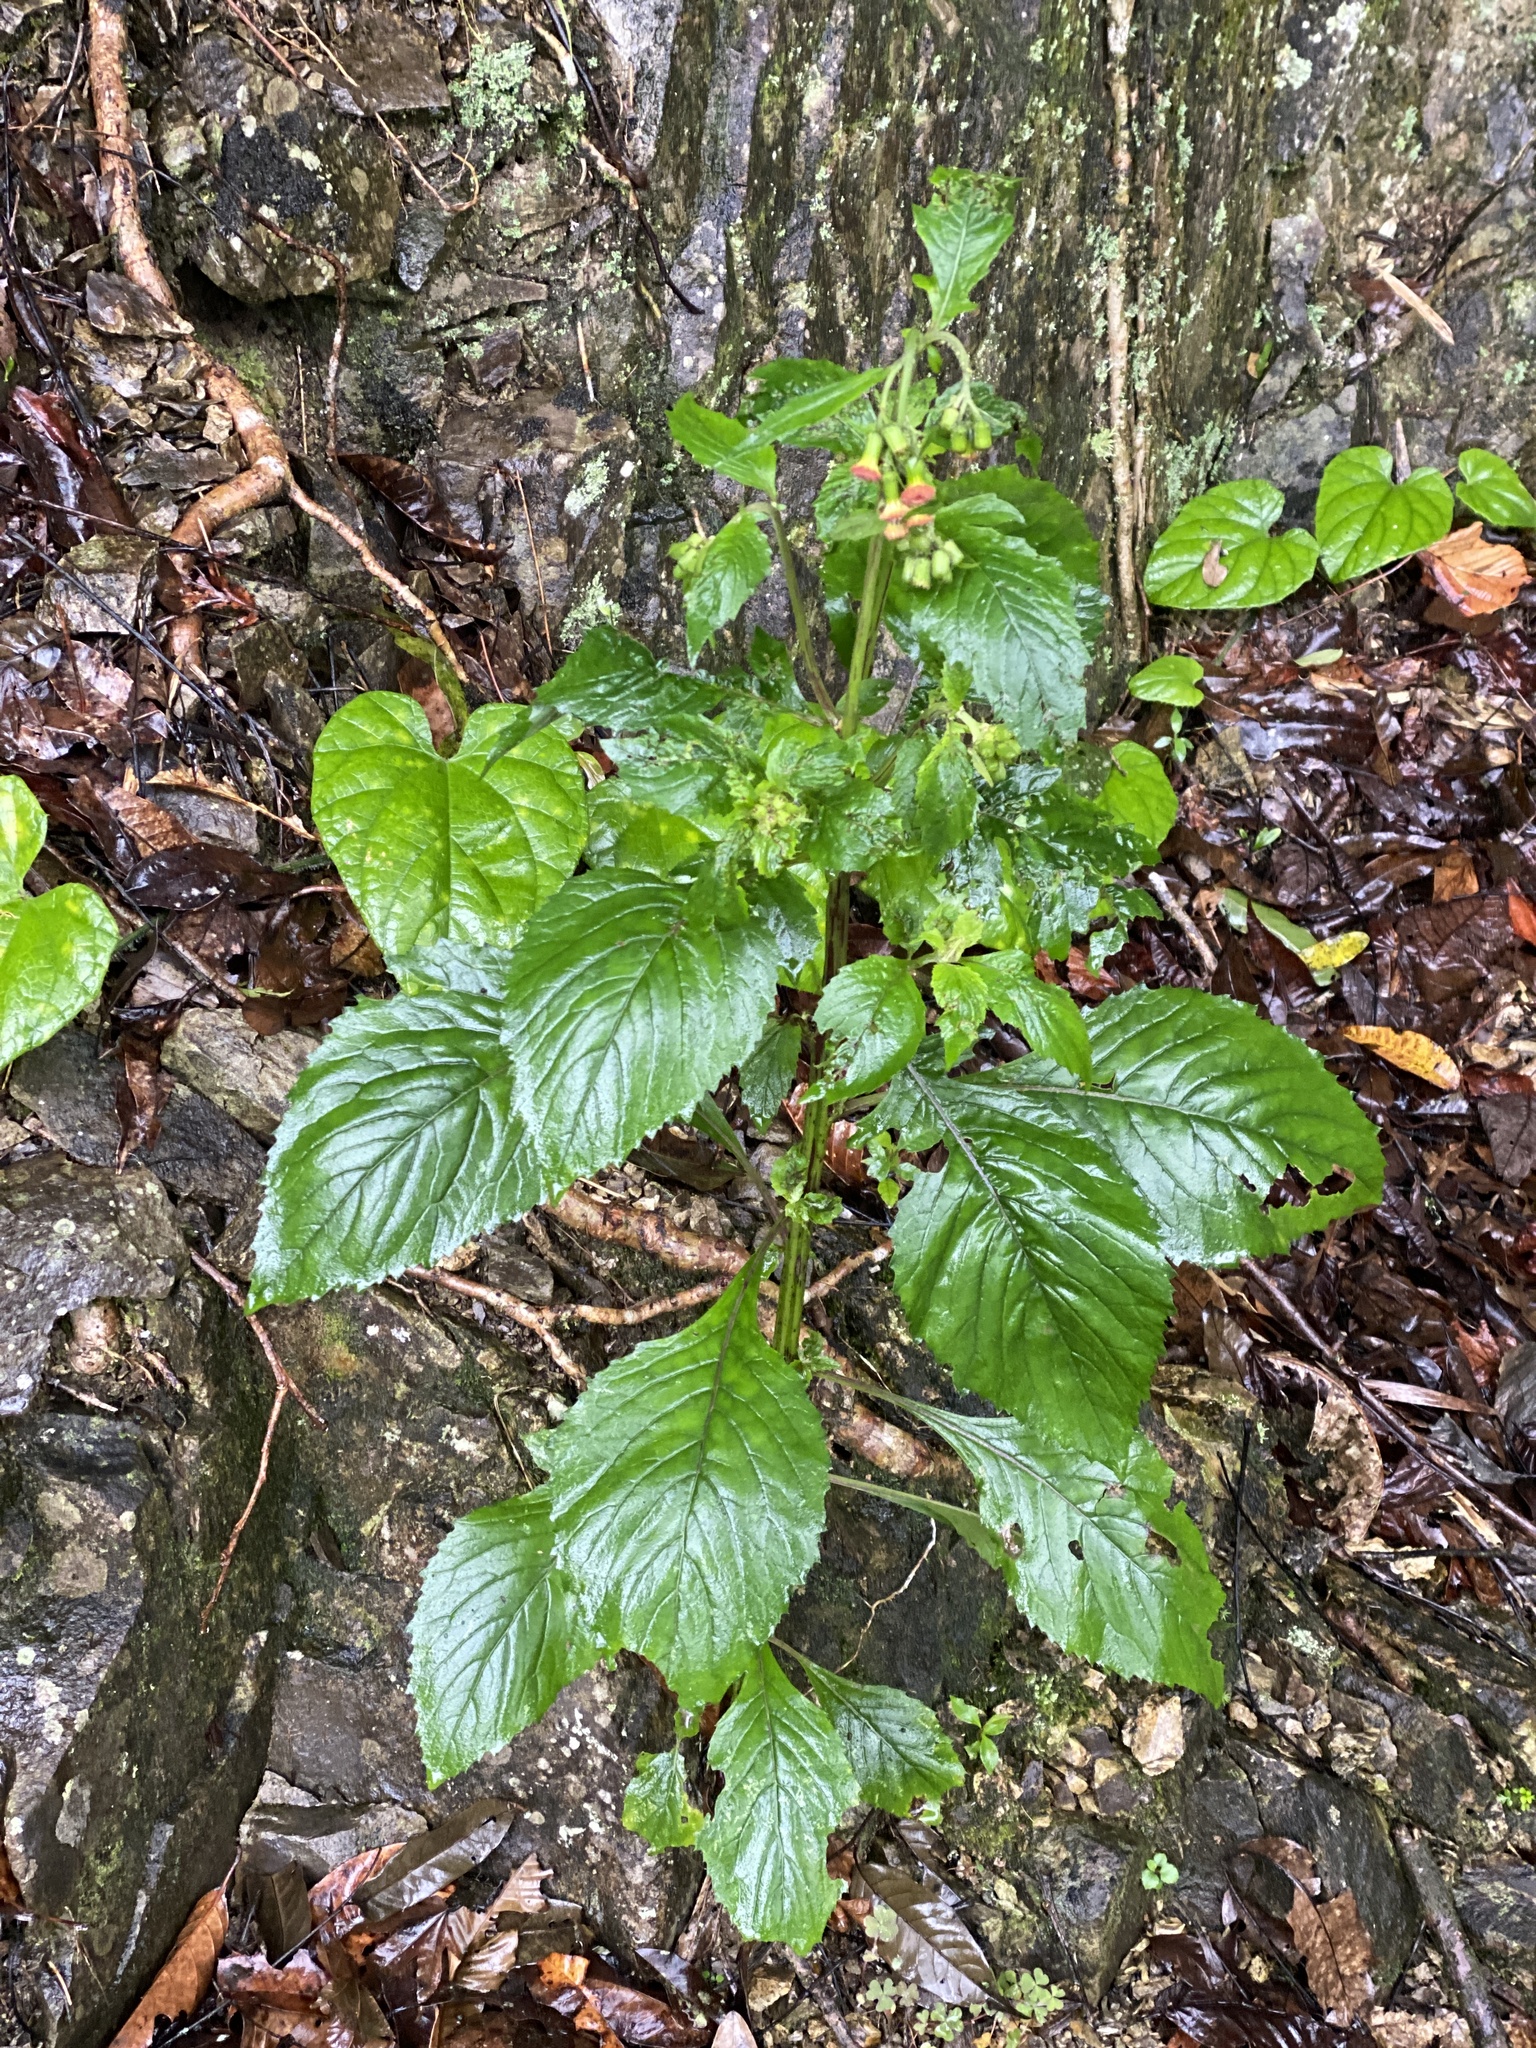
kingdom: Plantae
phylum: Tracheophyta
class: Magnoliopsida
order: Asterales
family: Asteraceae
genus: Crassocephalum
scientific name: Crassocephalum crepidioides
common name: Redflower ragleaf
